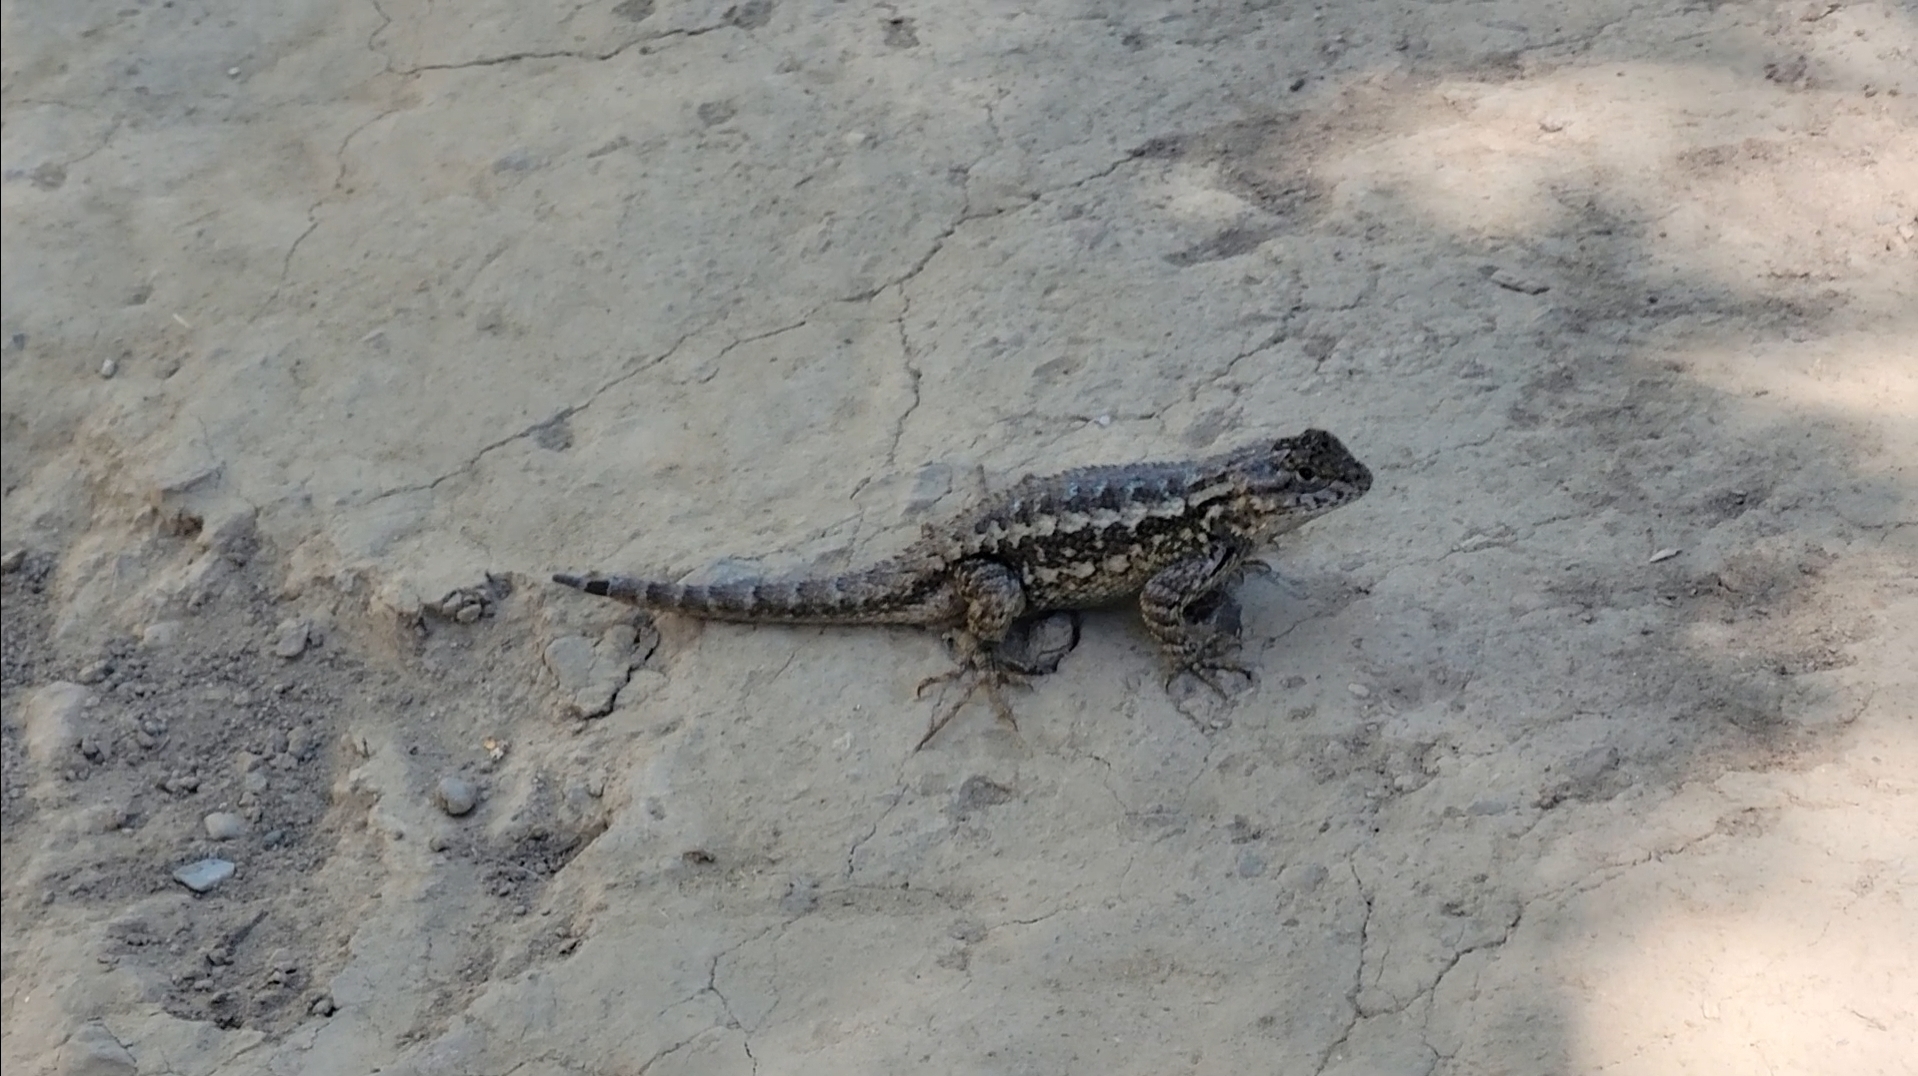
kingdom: Animalia
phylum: Chordata
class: Squamata
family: Phrynosomatidae
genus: Sceloporus
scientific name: Sceloporus occidentalis
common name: Western fence lizard
